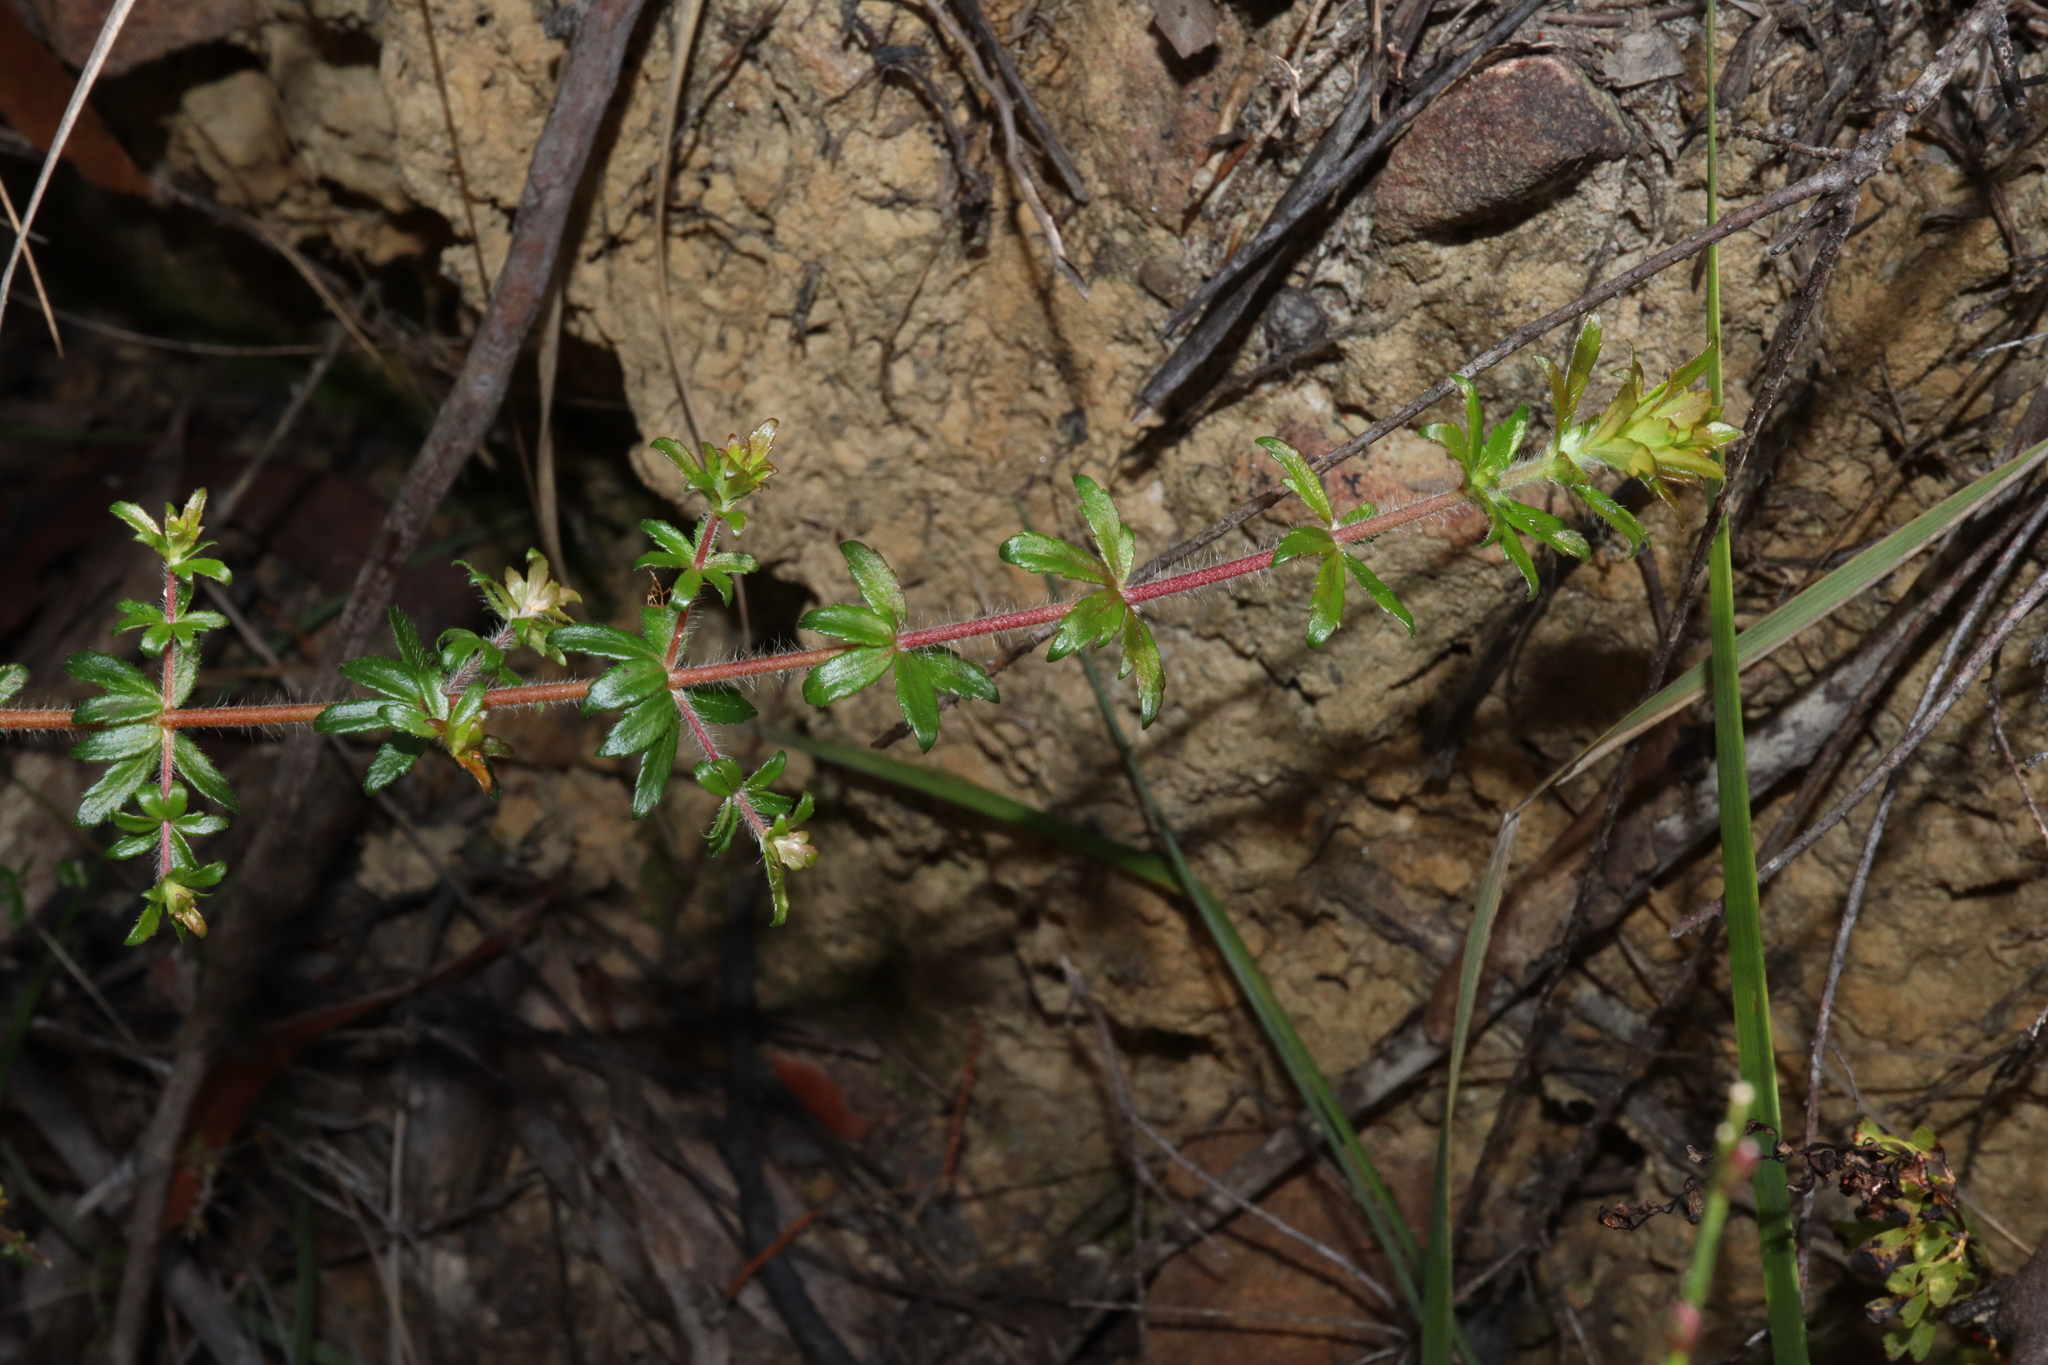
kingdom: Plantae
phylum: Tracheophyta
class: Magnoliopsida
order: Oxalidales
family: Cunoniaceae
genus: Bauera
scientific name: Bauera rubioides
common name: River-rose
